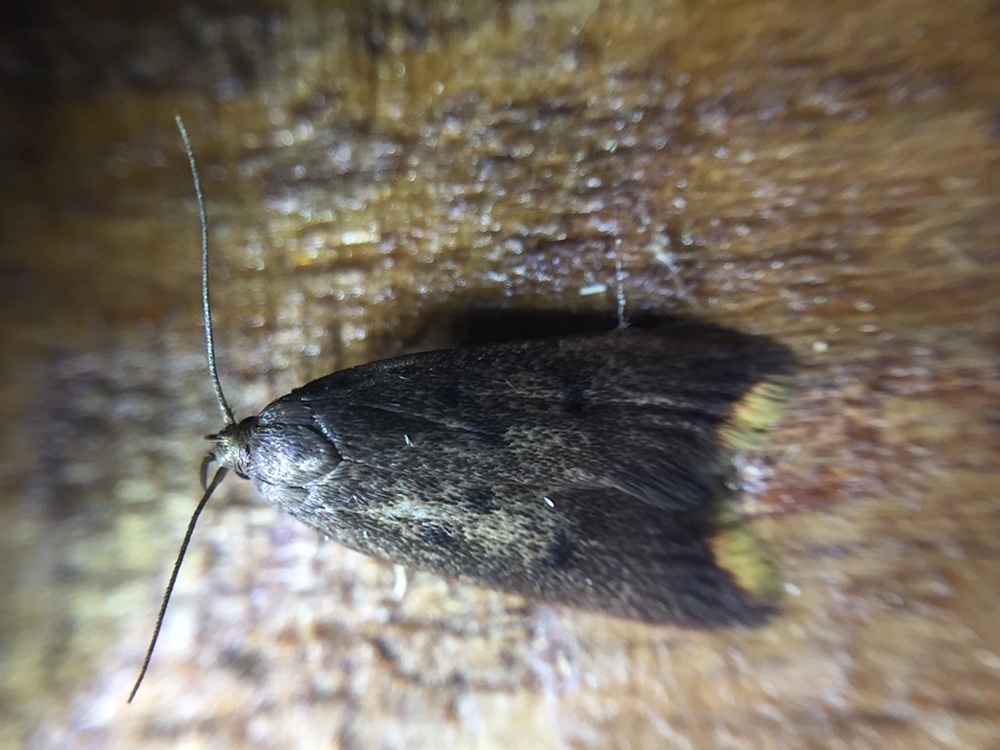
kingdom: Animalia
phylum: Arthropoda
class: Insecta
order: Lepidoptera
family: Oecophoridae
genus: Tachystola
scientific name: Tachystola acroxantha
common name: Ruddy streak
